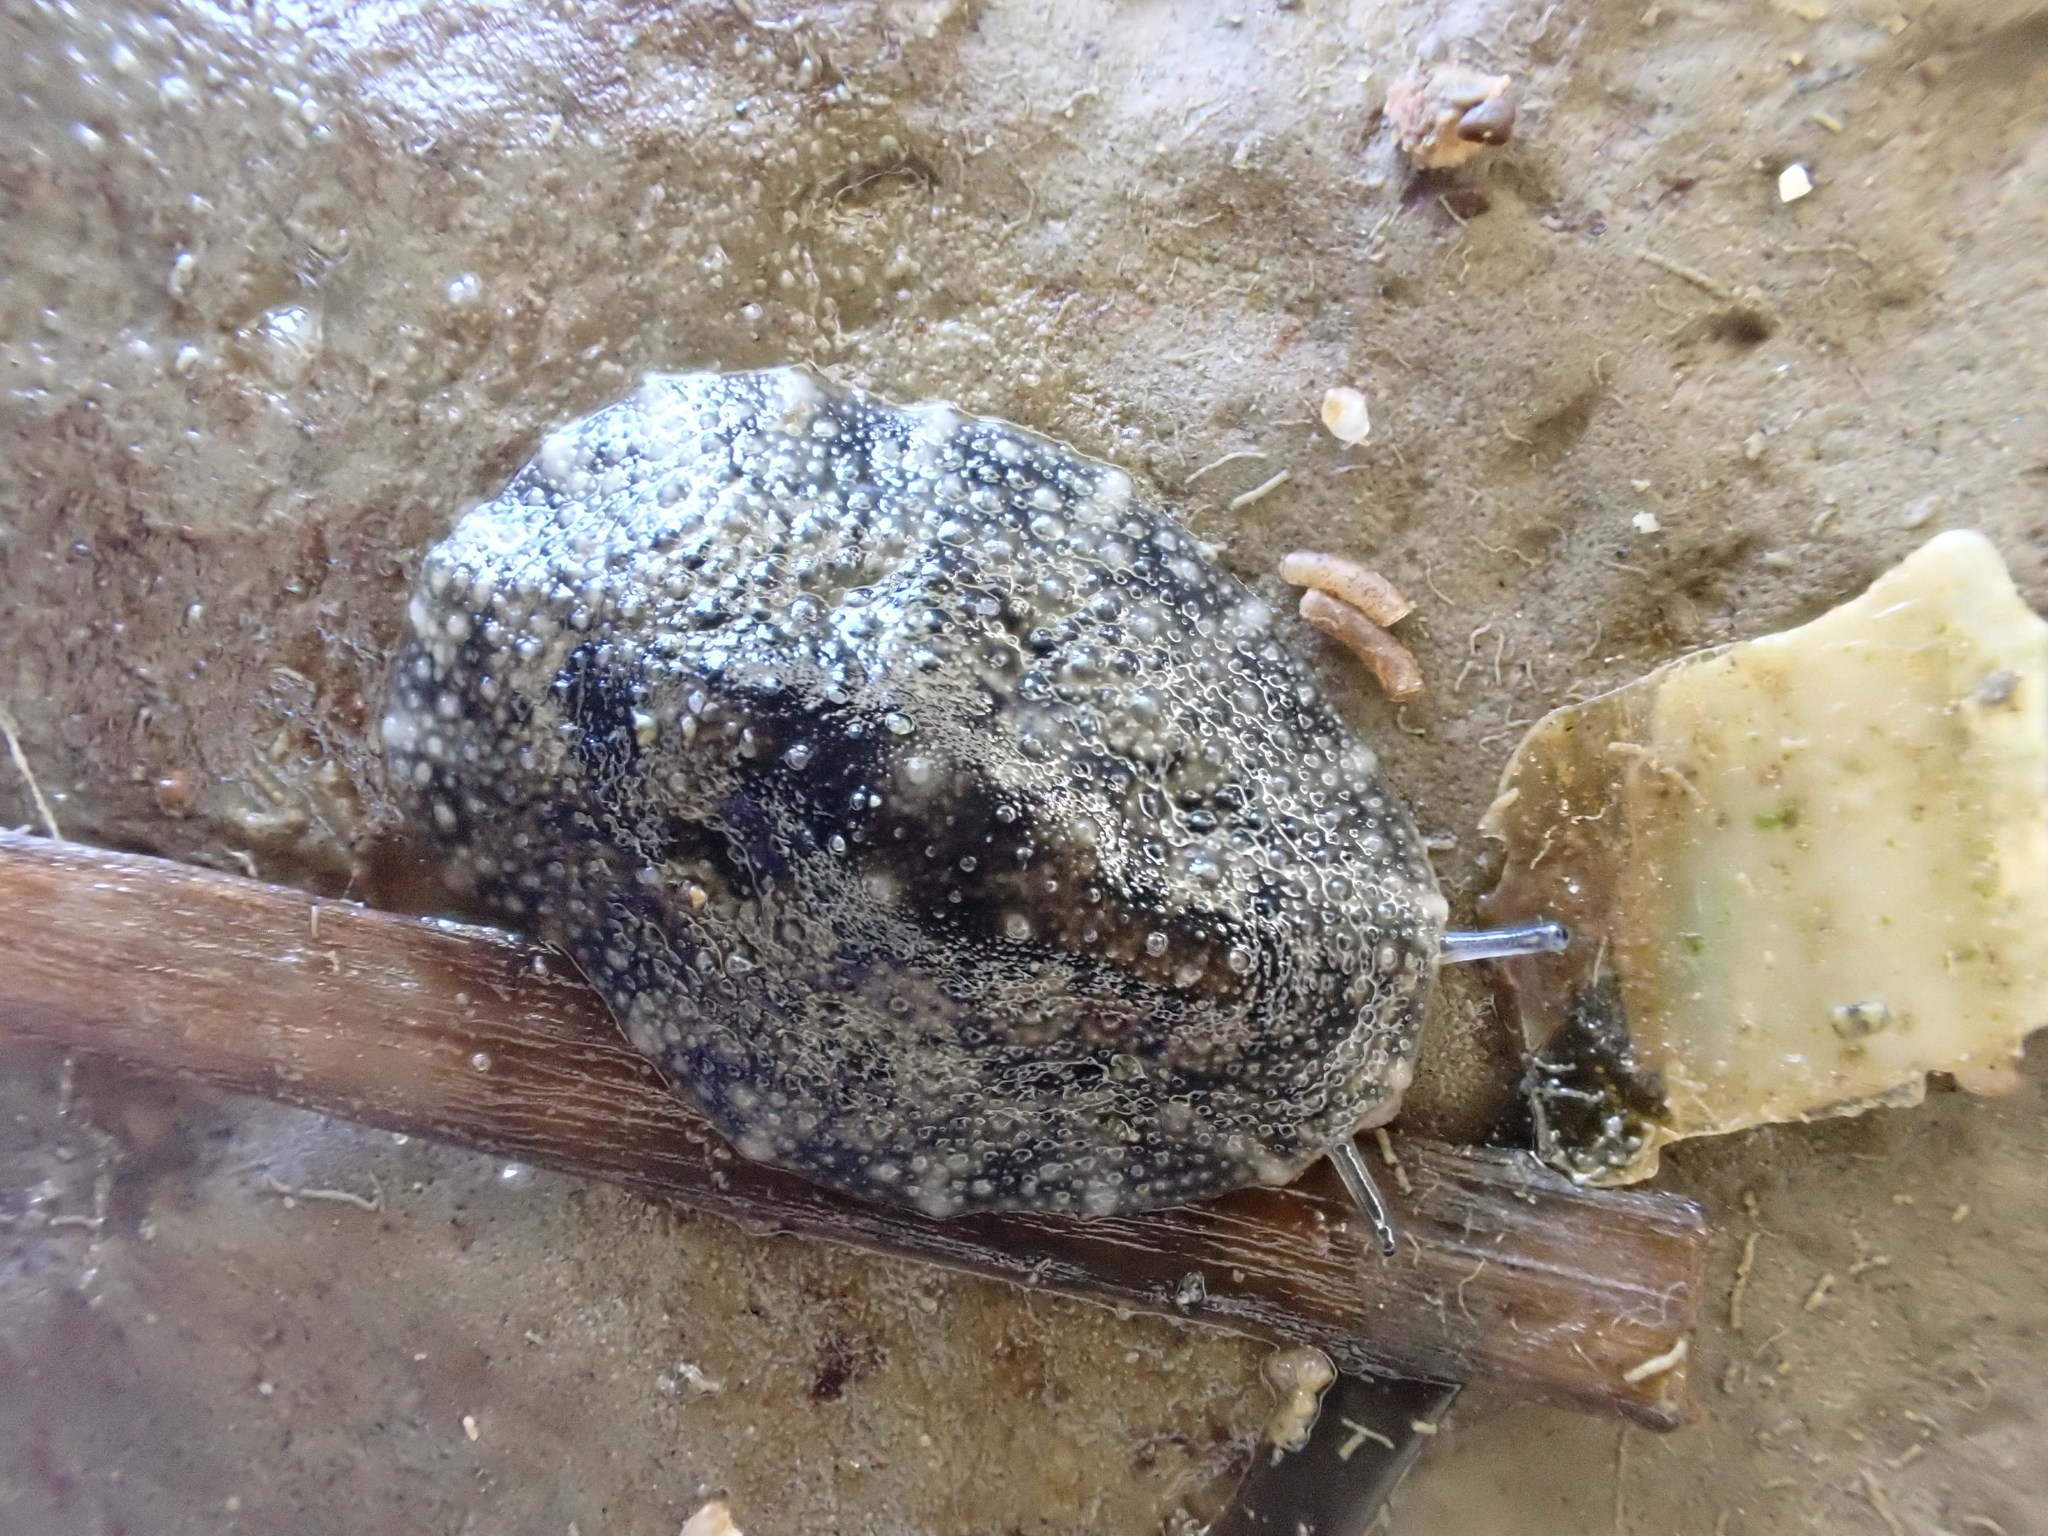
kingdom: Animalia
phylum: Mollusca
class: Gastropoda
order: Systellommatophora
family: Onchidiidae
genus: Onchidella
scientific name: Onchidella nigricans
